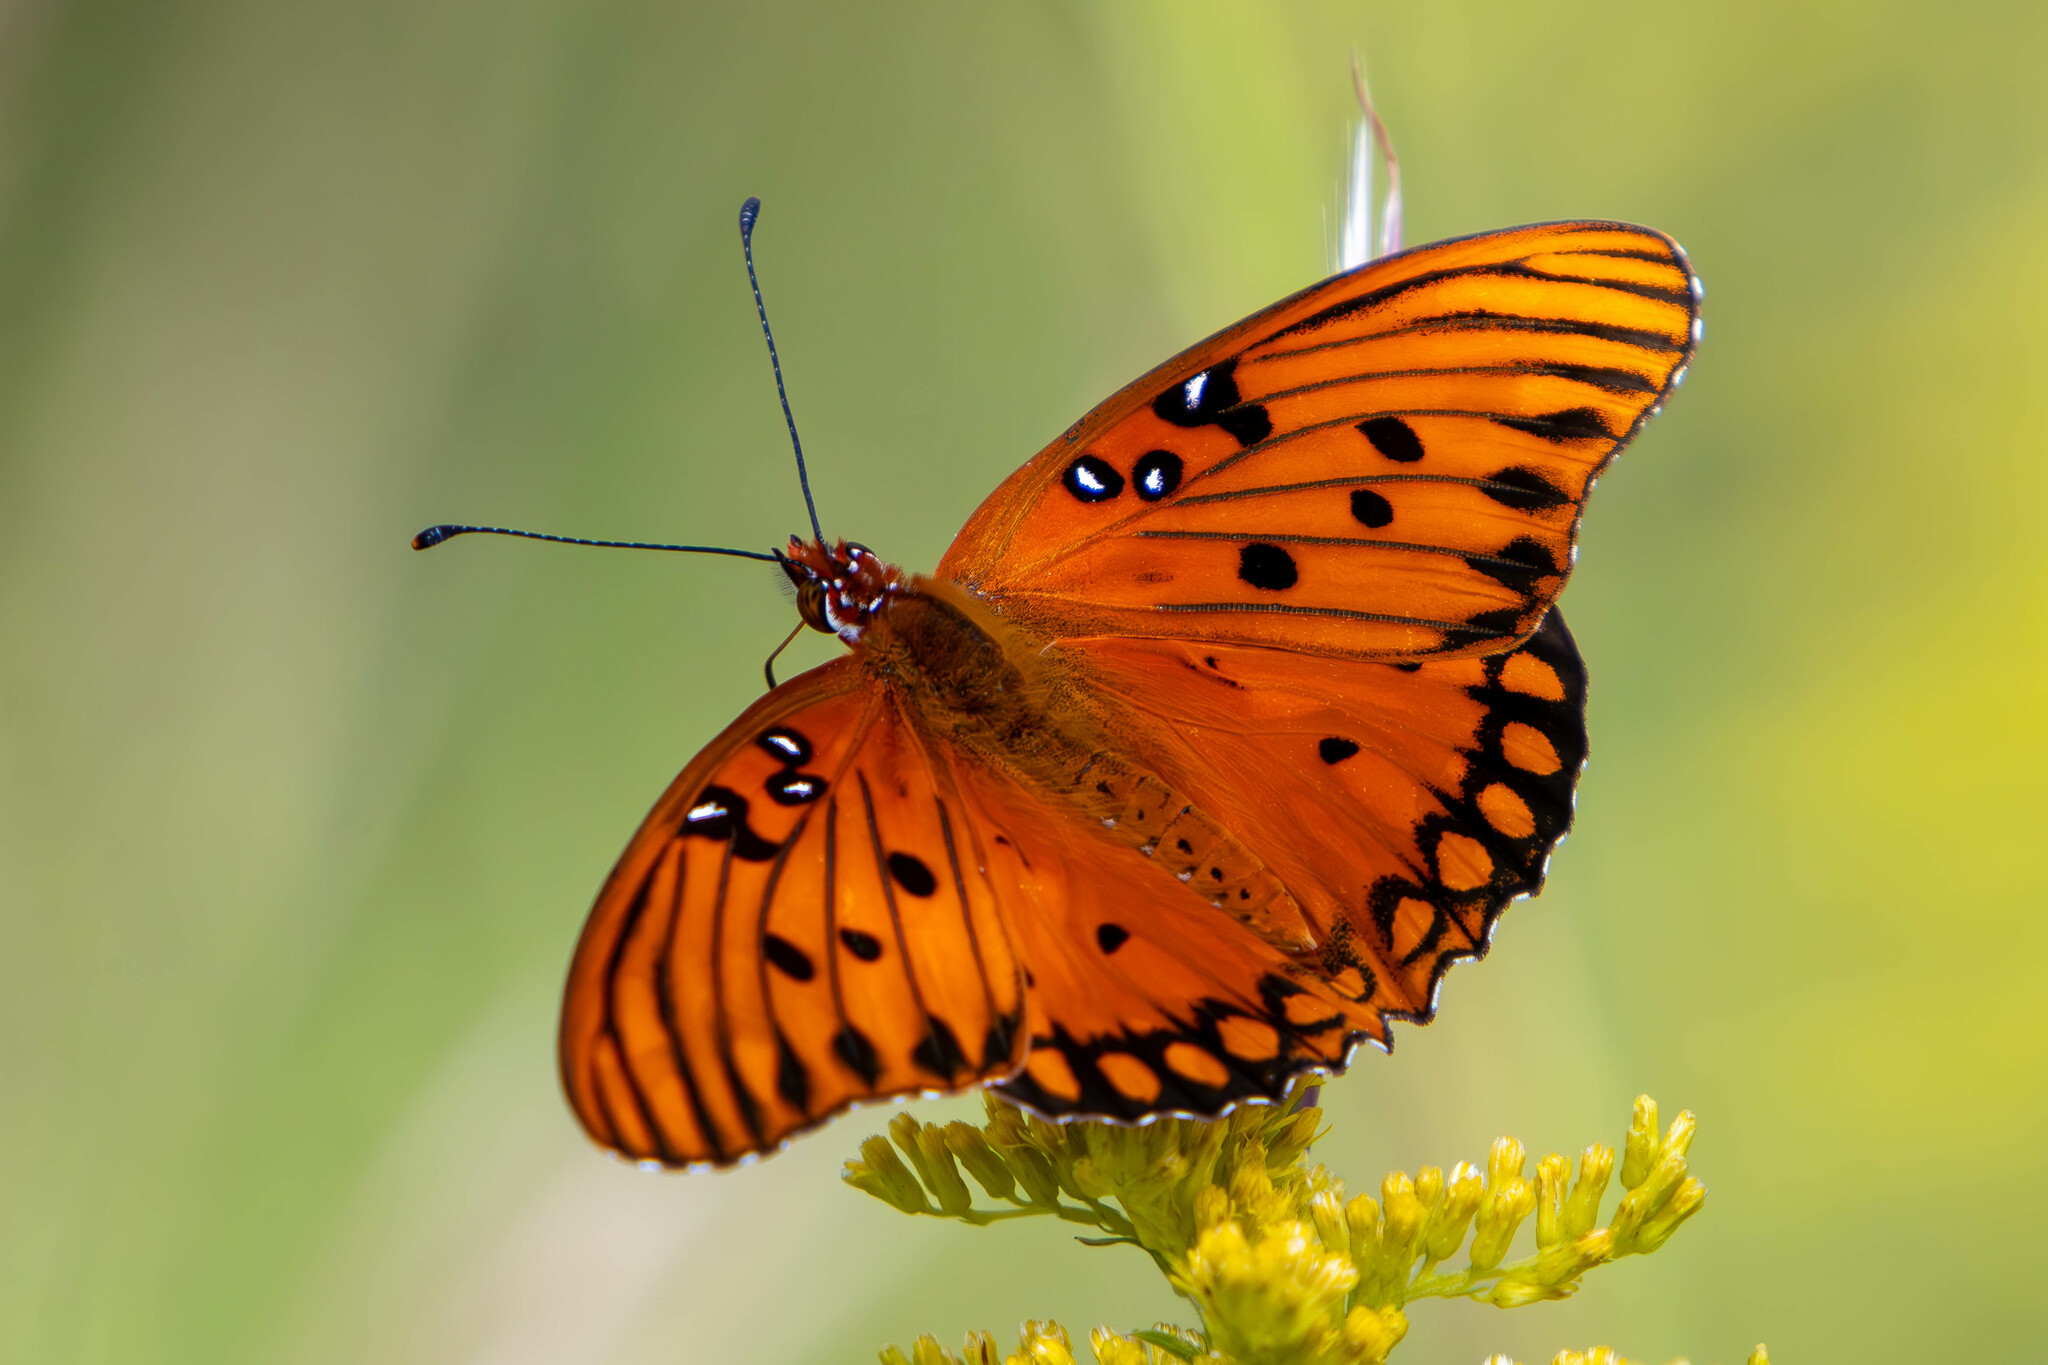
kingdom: Animalia
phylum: Arthropoda
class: Insecta
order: Lepidoptera
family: Nymphalidae
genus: Dione
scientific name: Dione vanillae
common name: Gulf fritillary
